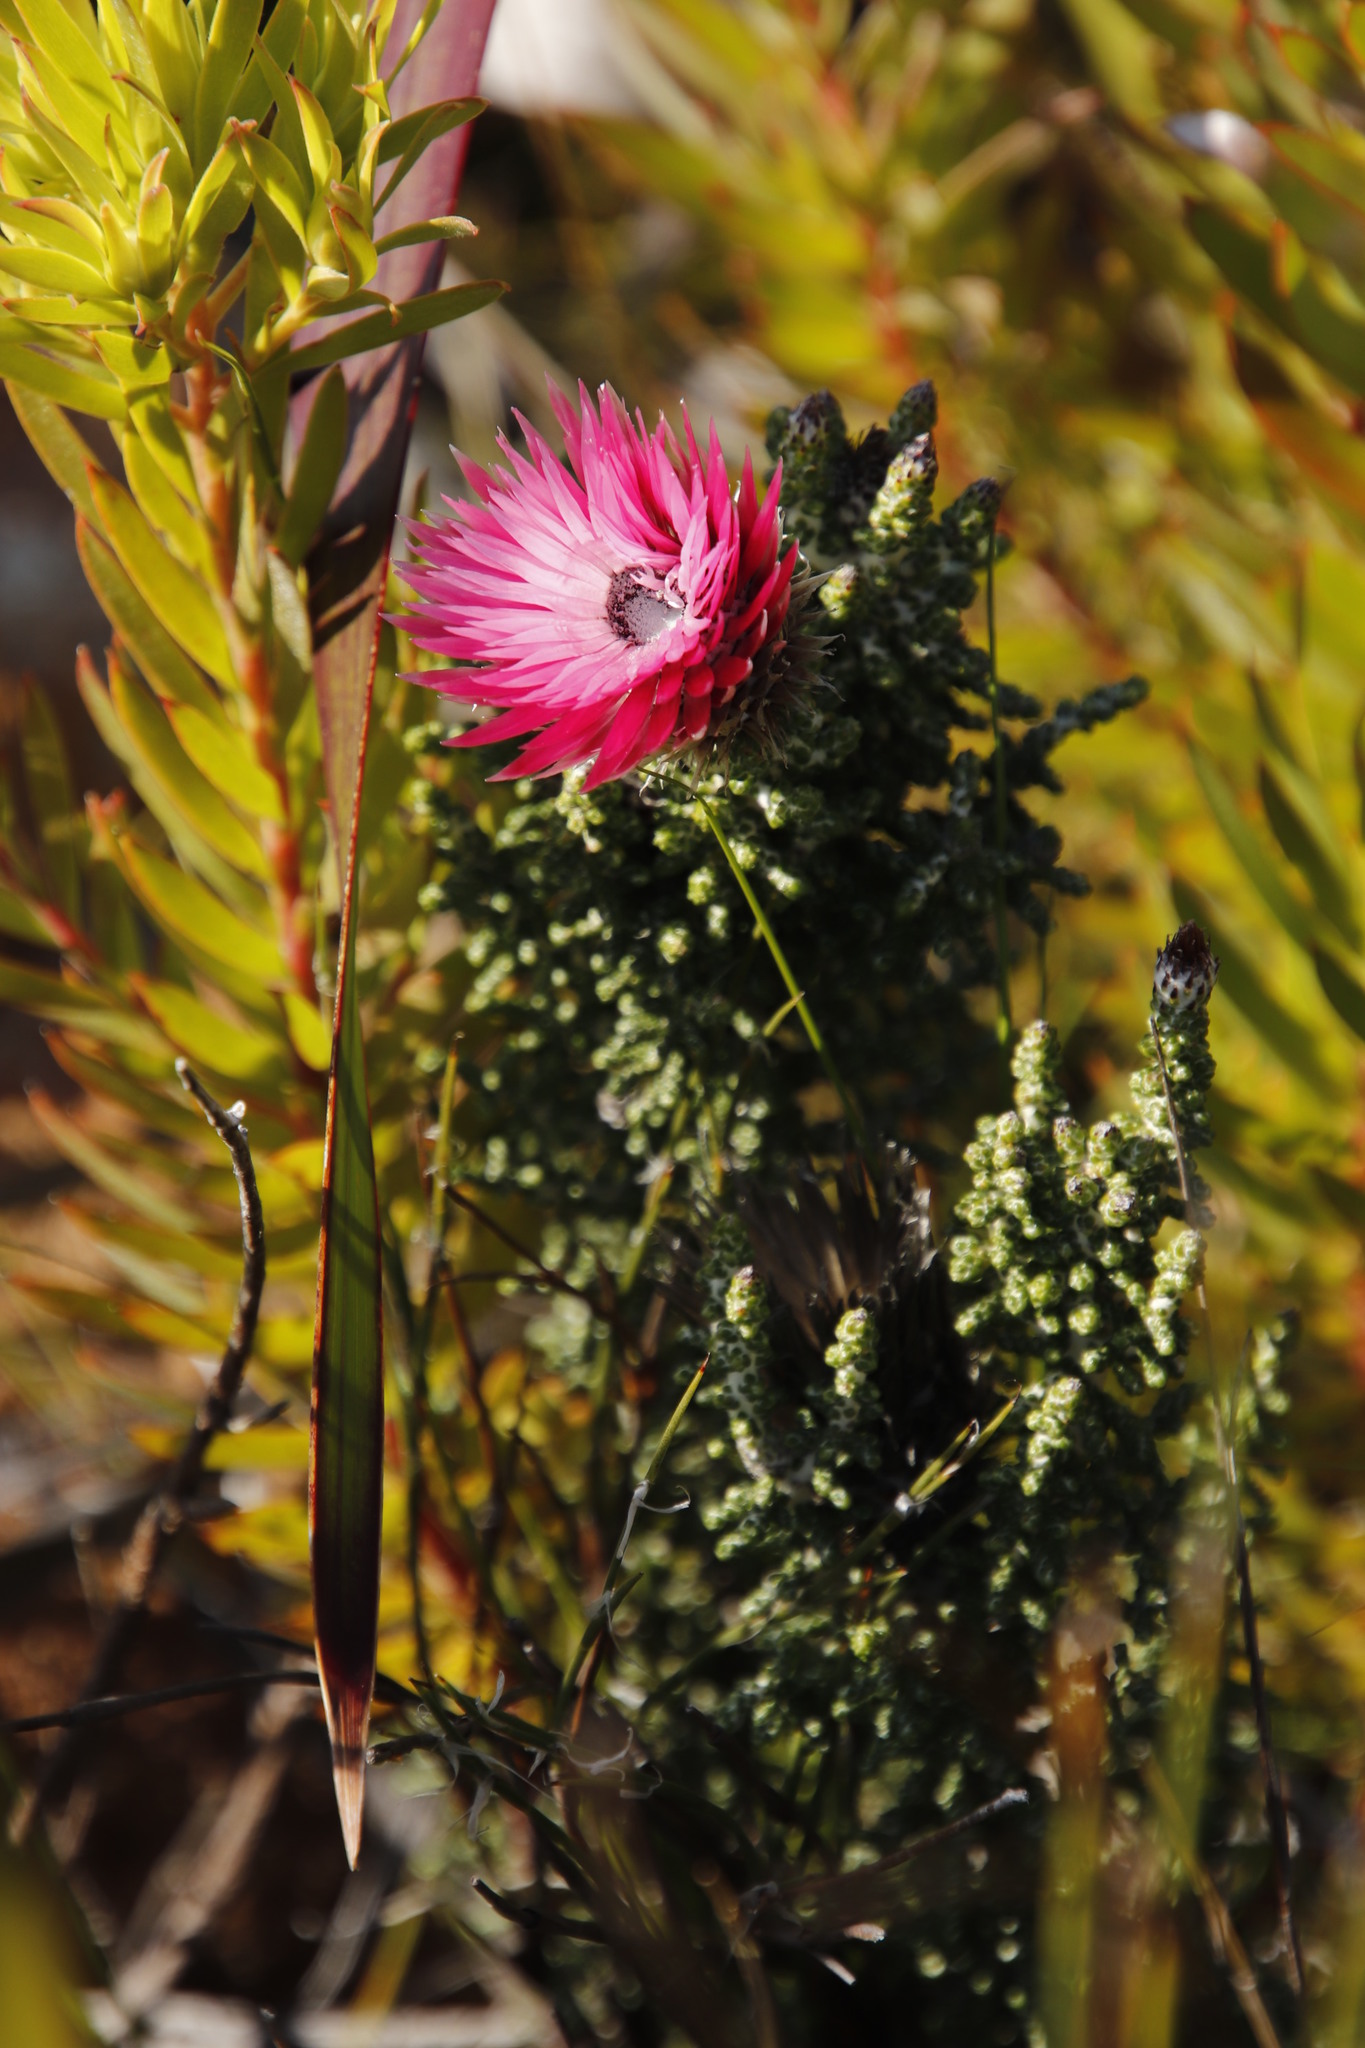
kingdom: Plantae
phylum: Tracheophyta
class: Magnoliopsida
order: Asterales
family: Asteraceae
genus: Phaenocoma
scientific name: Phaenocoma prolifera
